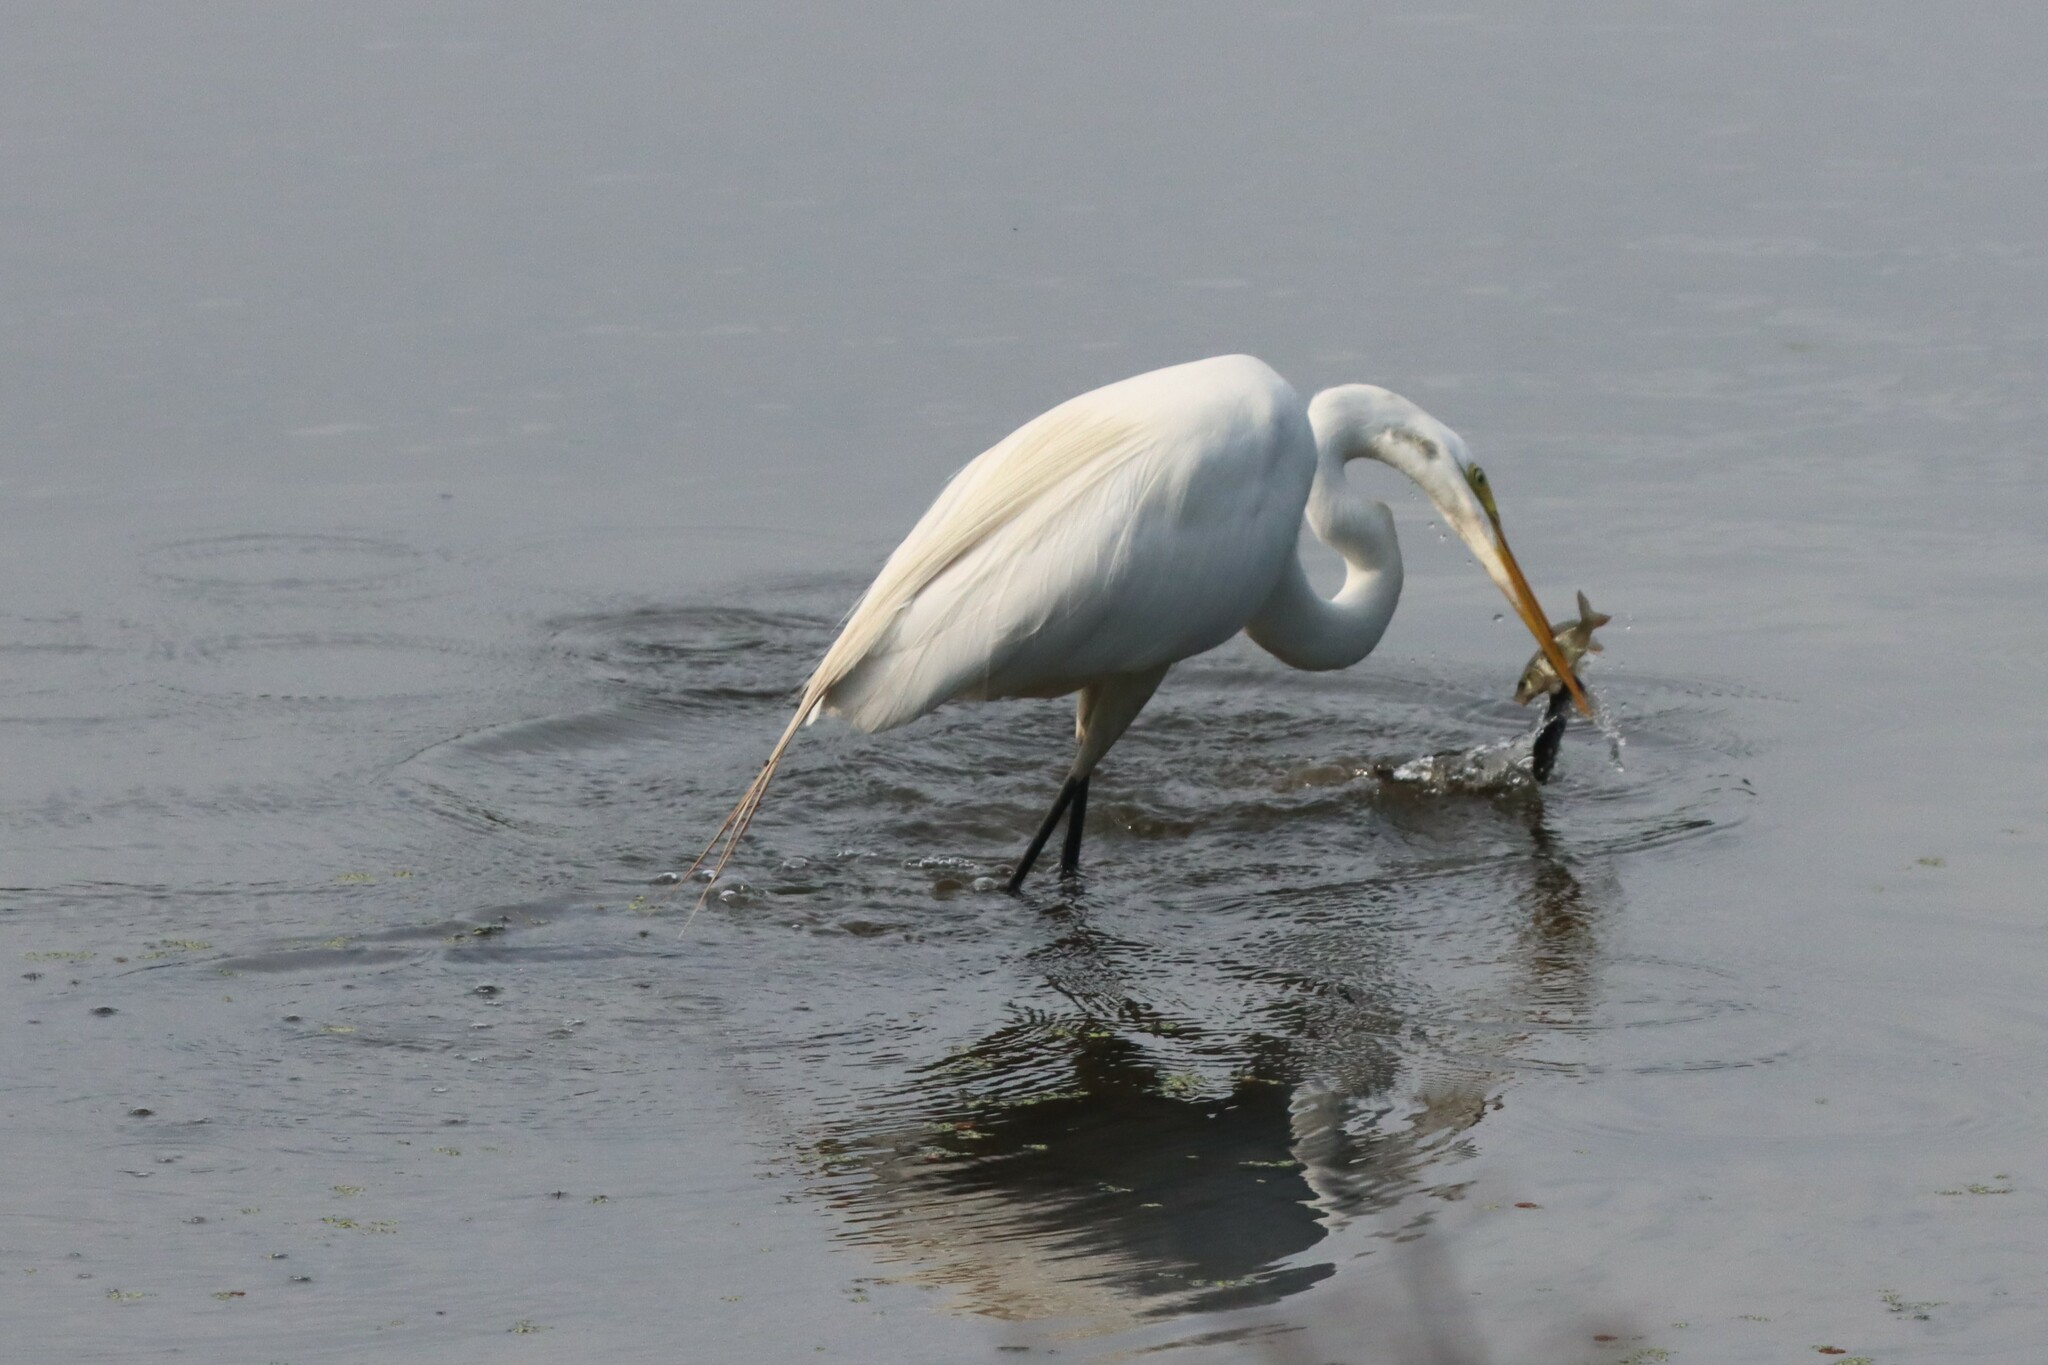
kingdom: Animalia
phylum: Chordata
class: Aves
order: Pelecaniformes
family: Ardeidae
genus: Ardea
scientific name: Ardea alba
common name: Great egret
